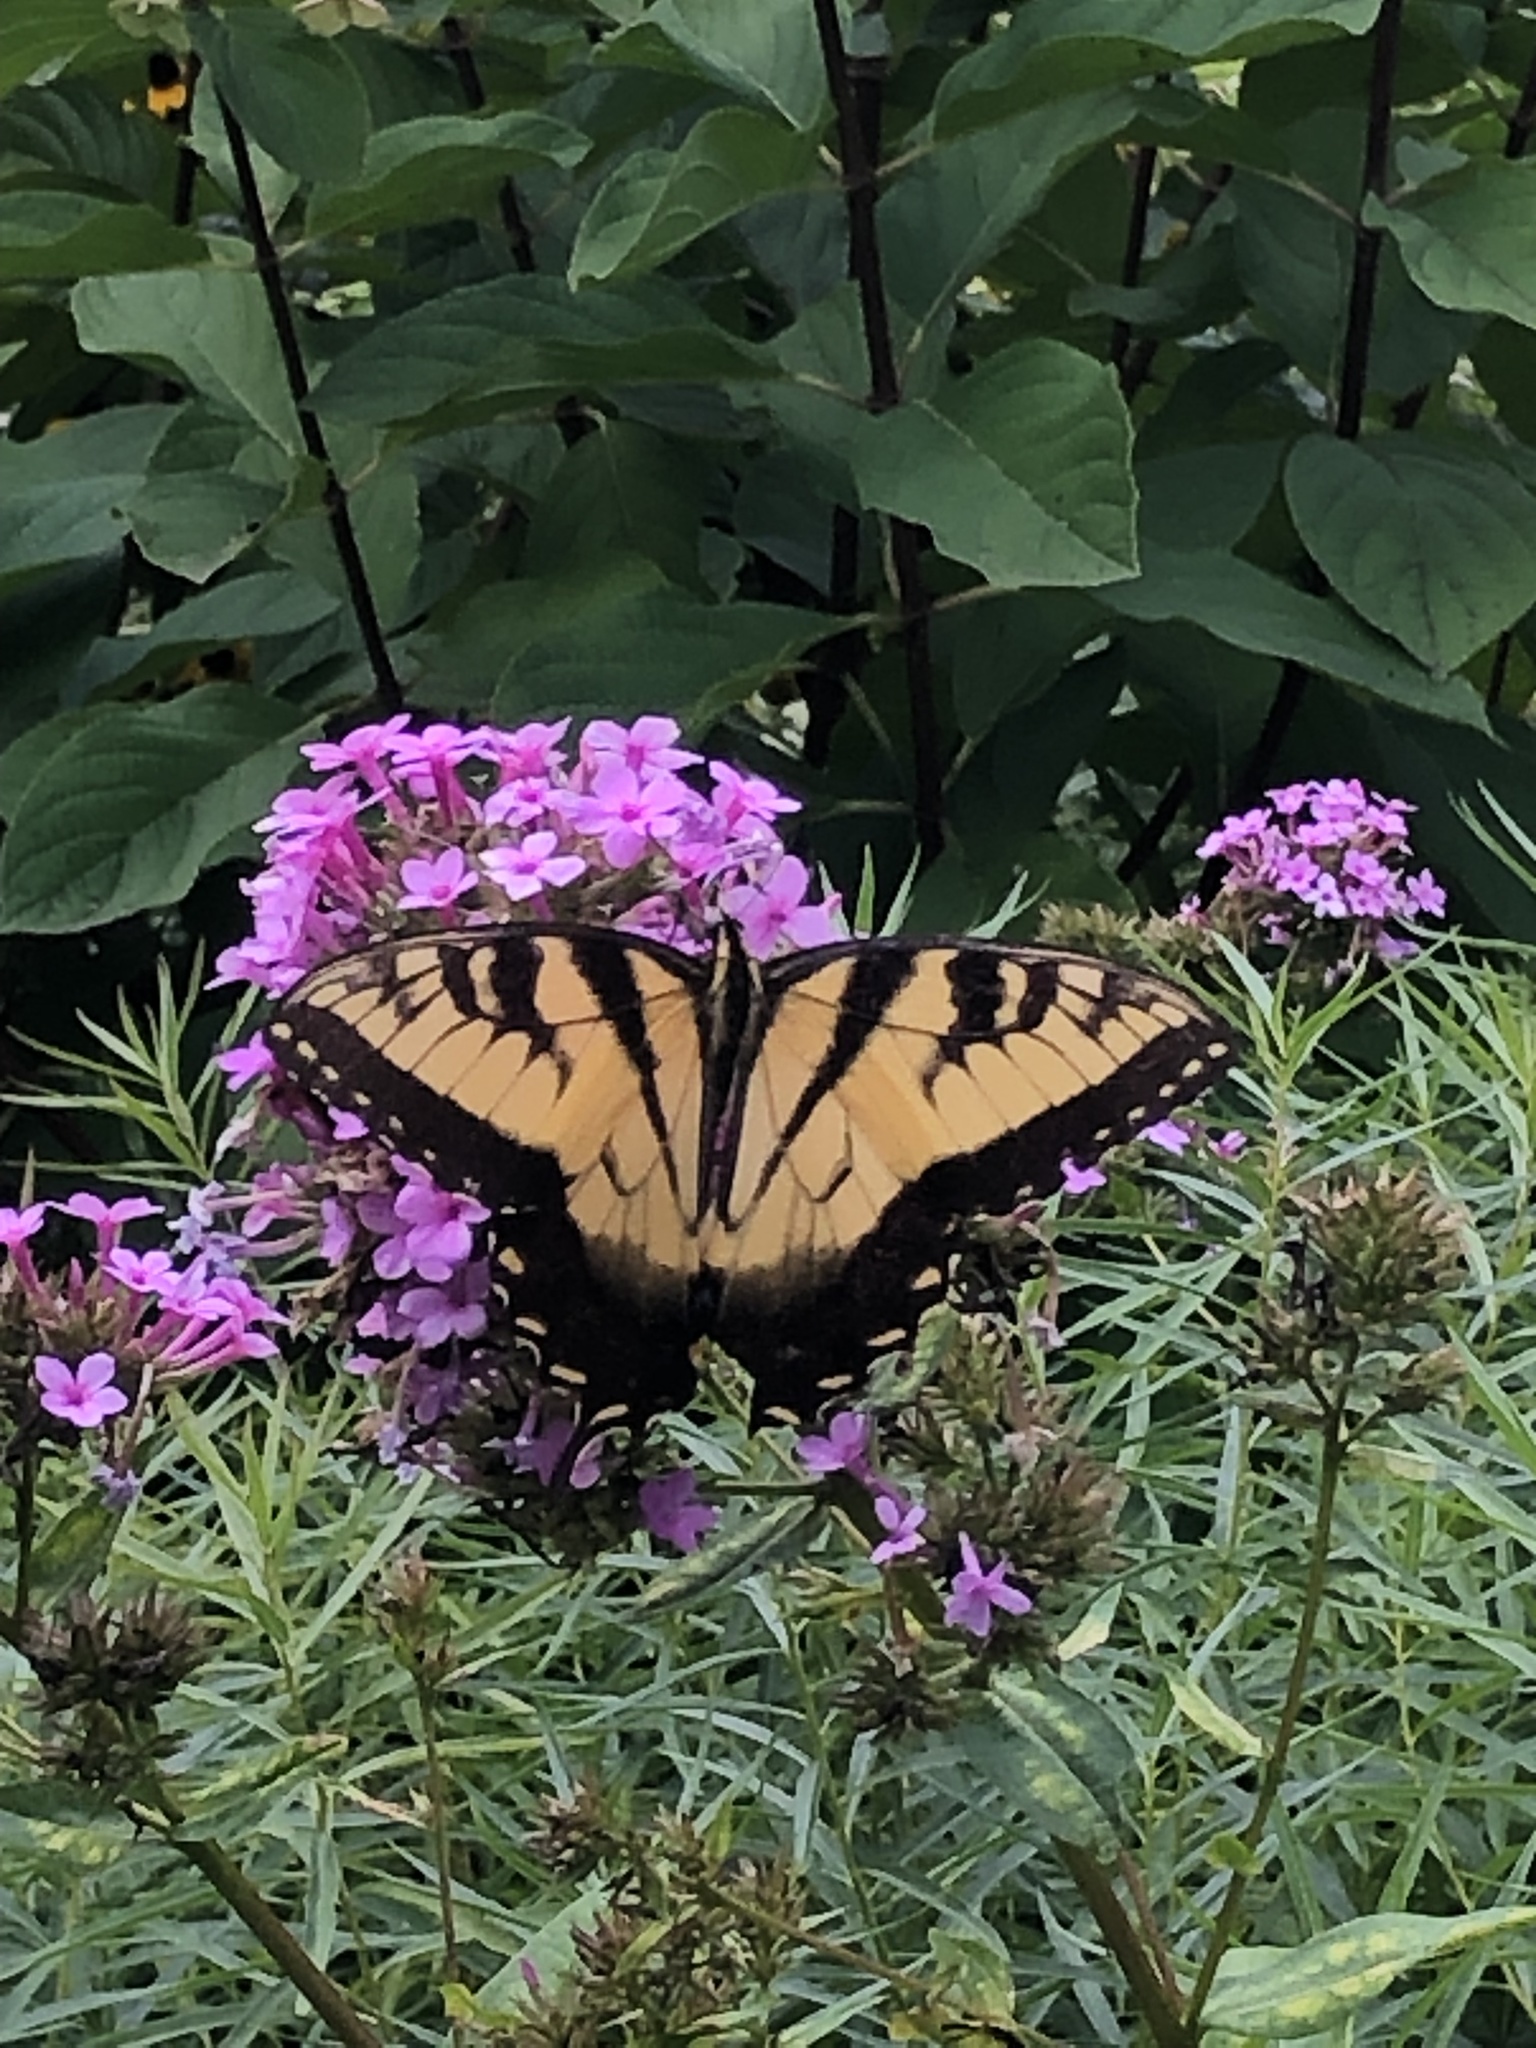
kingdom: Animalia
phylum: Arthropoda
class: Insecta
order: Lepidoptera
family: Papilionidae
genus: Papilio
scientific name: Papilio glaucus
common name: Tiger swallowtail
